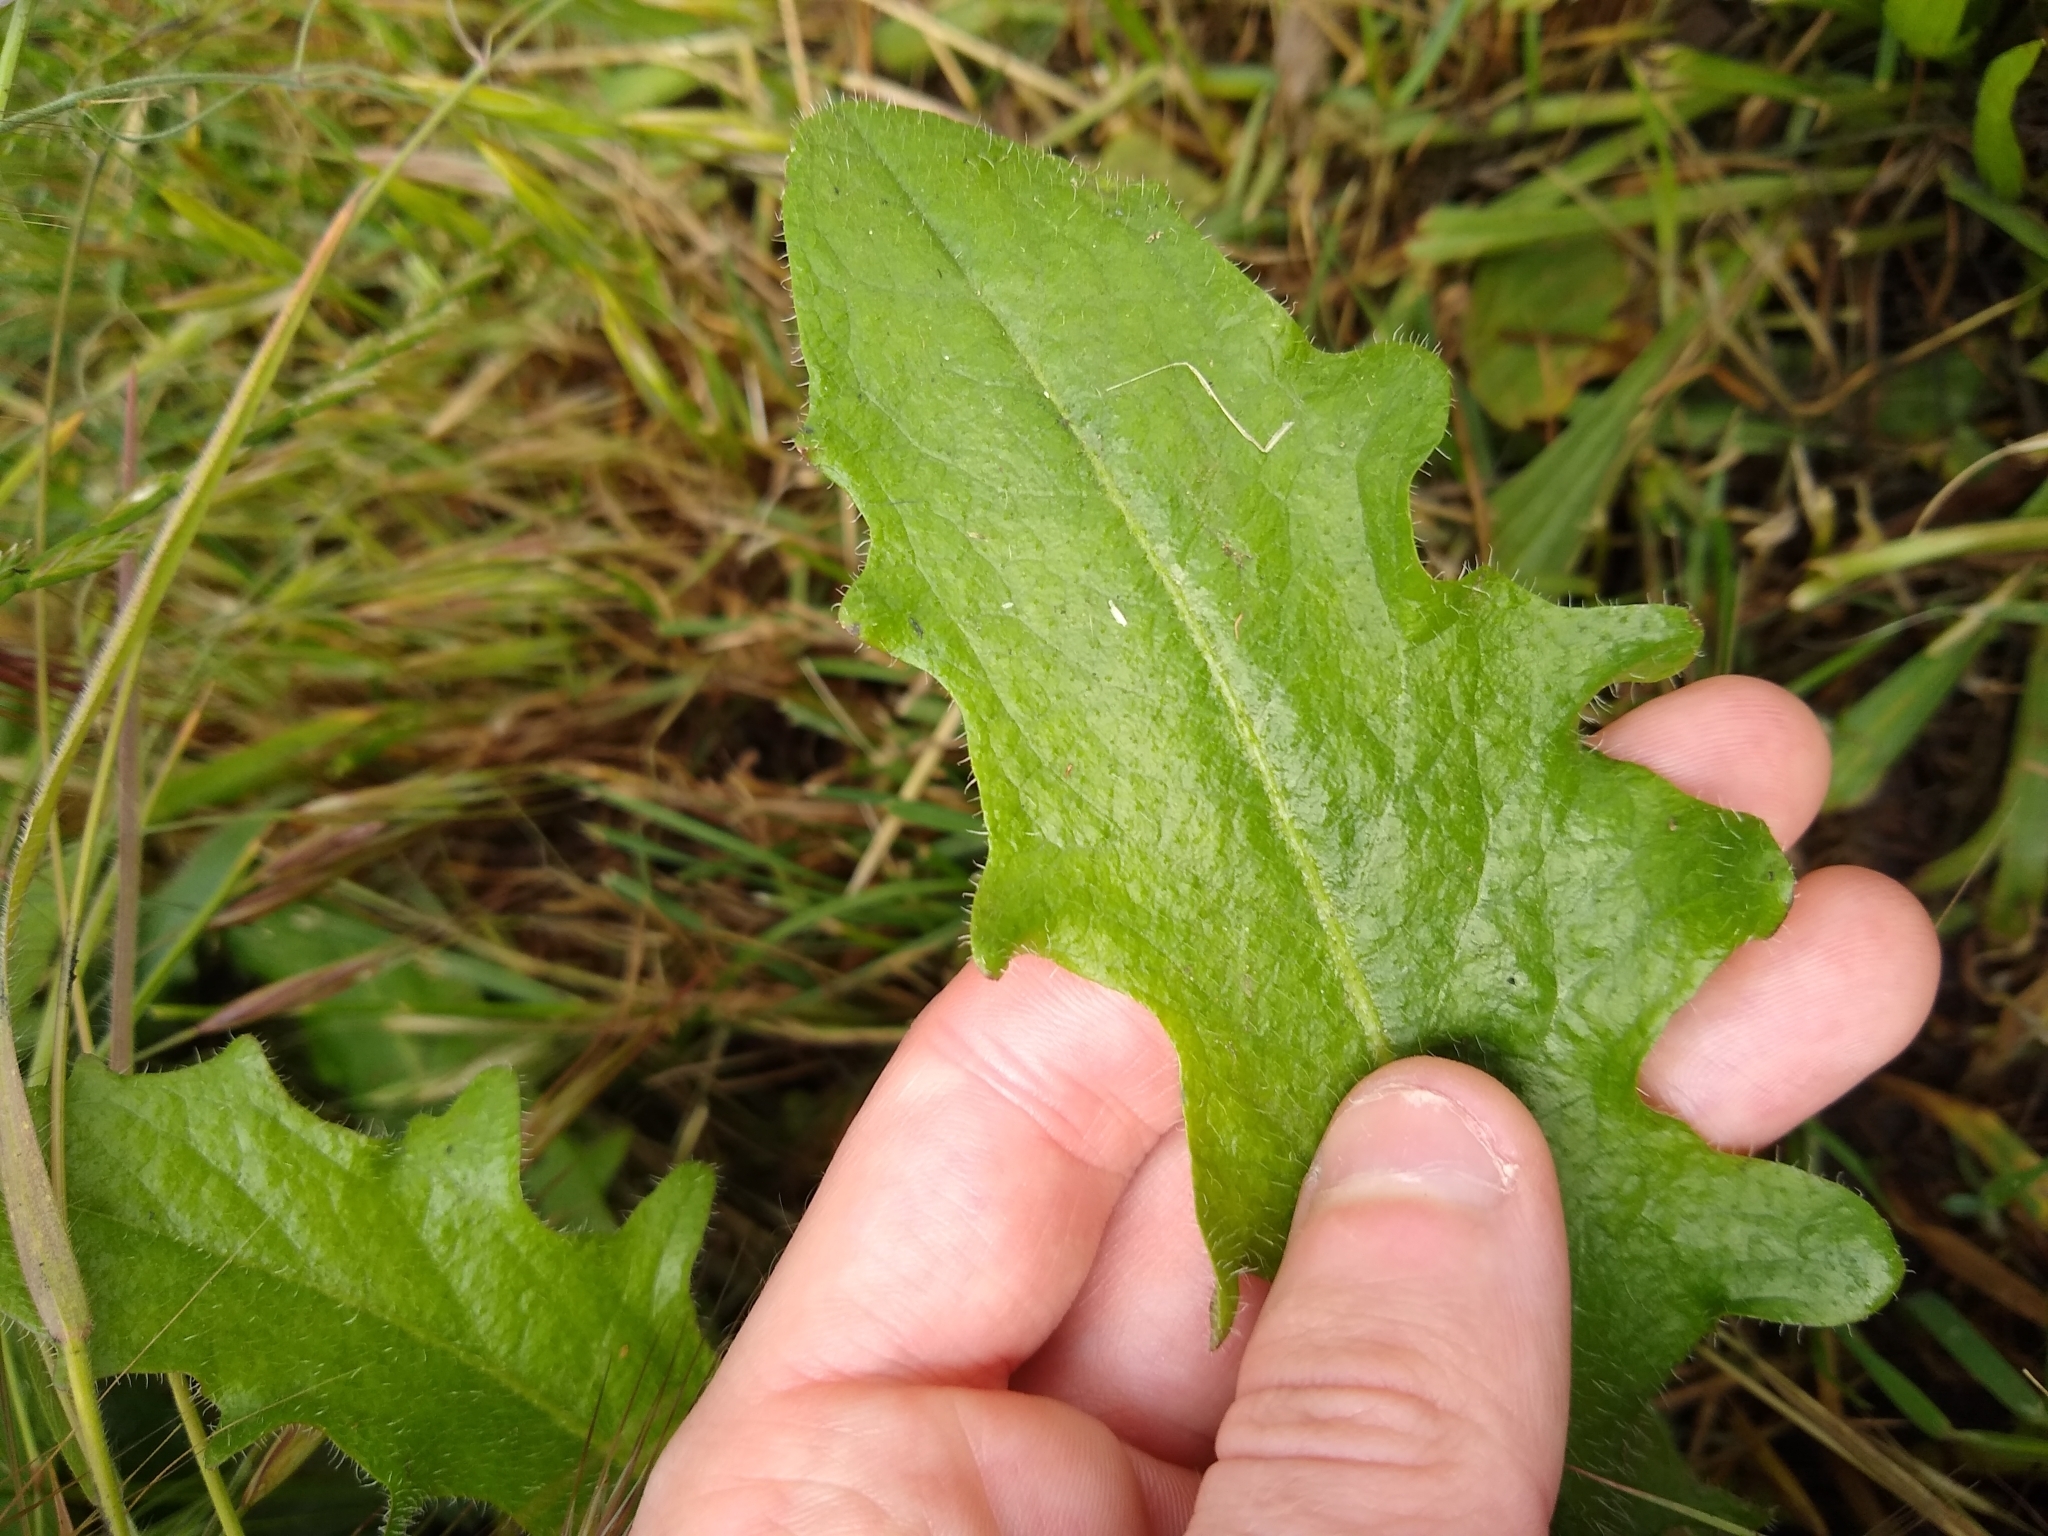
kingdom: Plantae
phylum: Tracheophyta
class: Magnoliopsida
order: Asterales
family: Asteraceae
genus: Hypochaeris
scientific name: Hypochaeris radicata
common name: Flatweed
